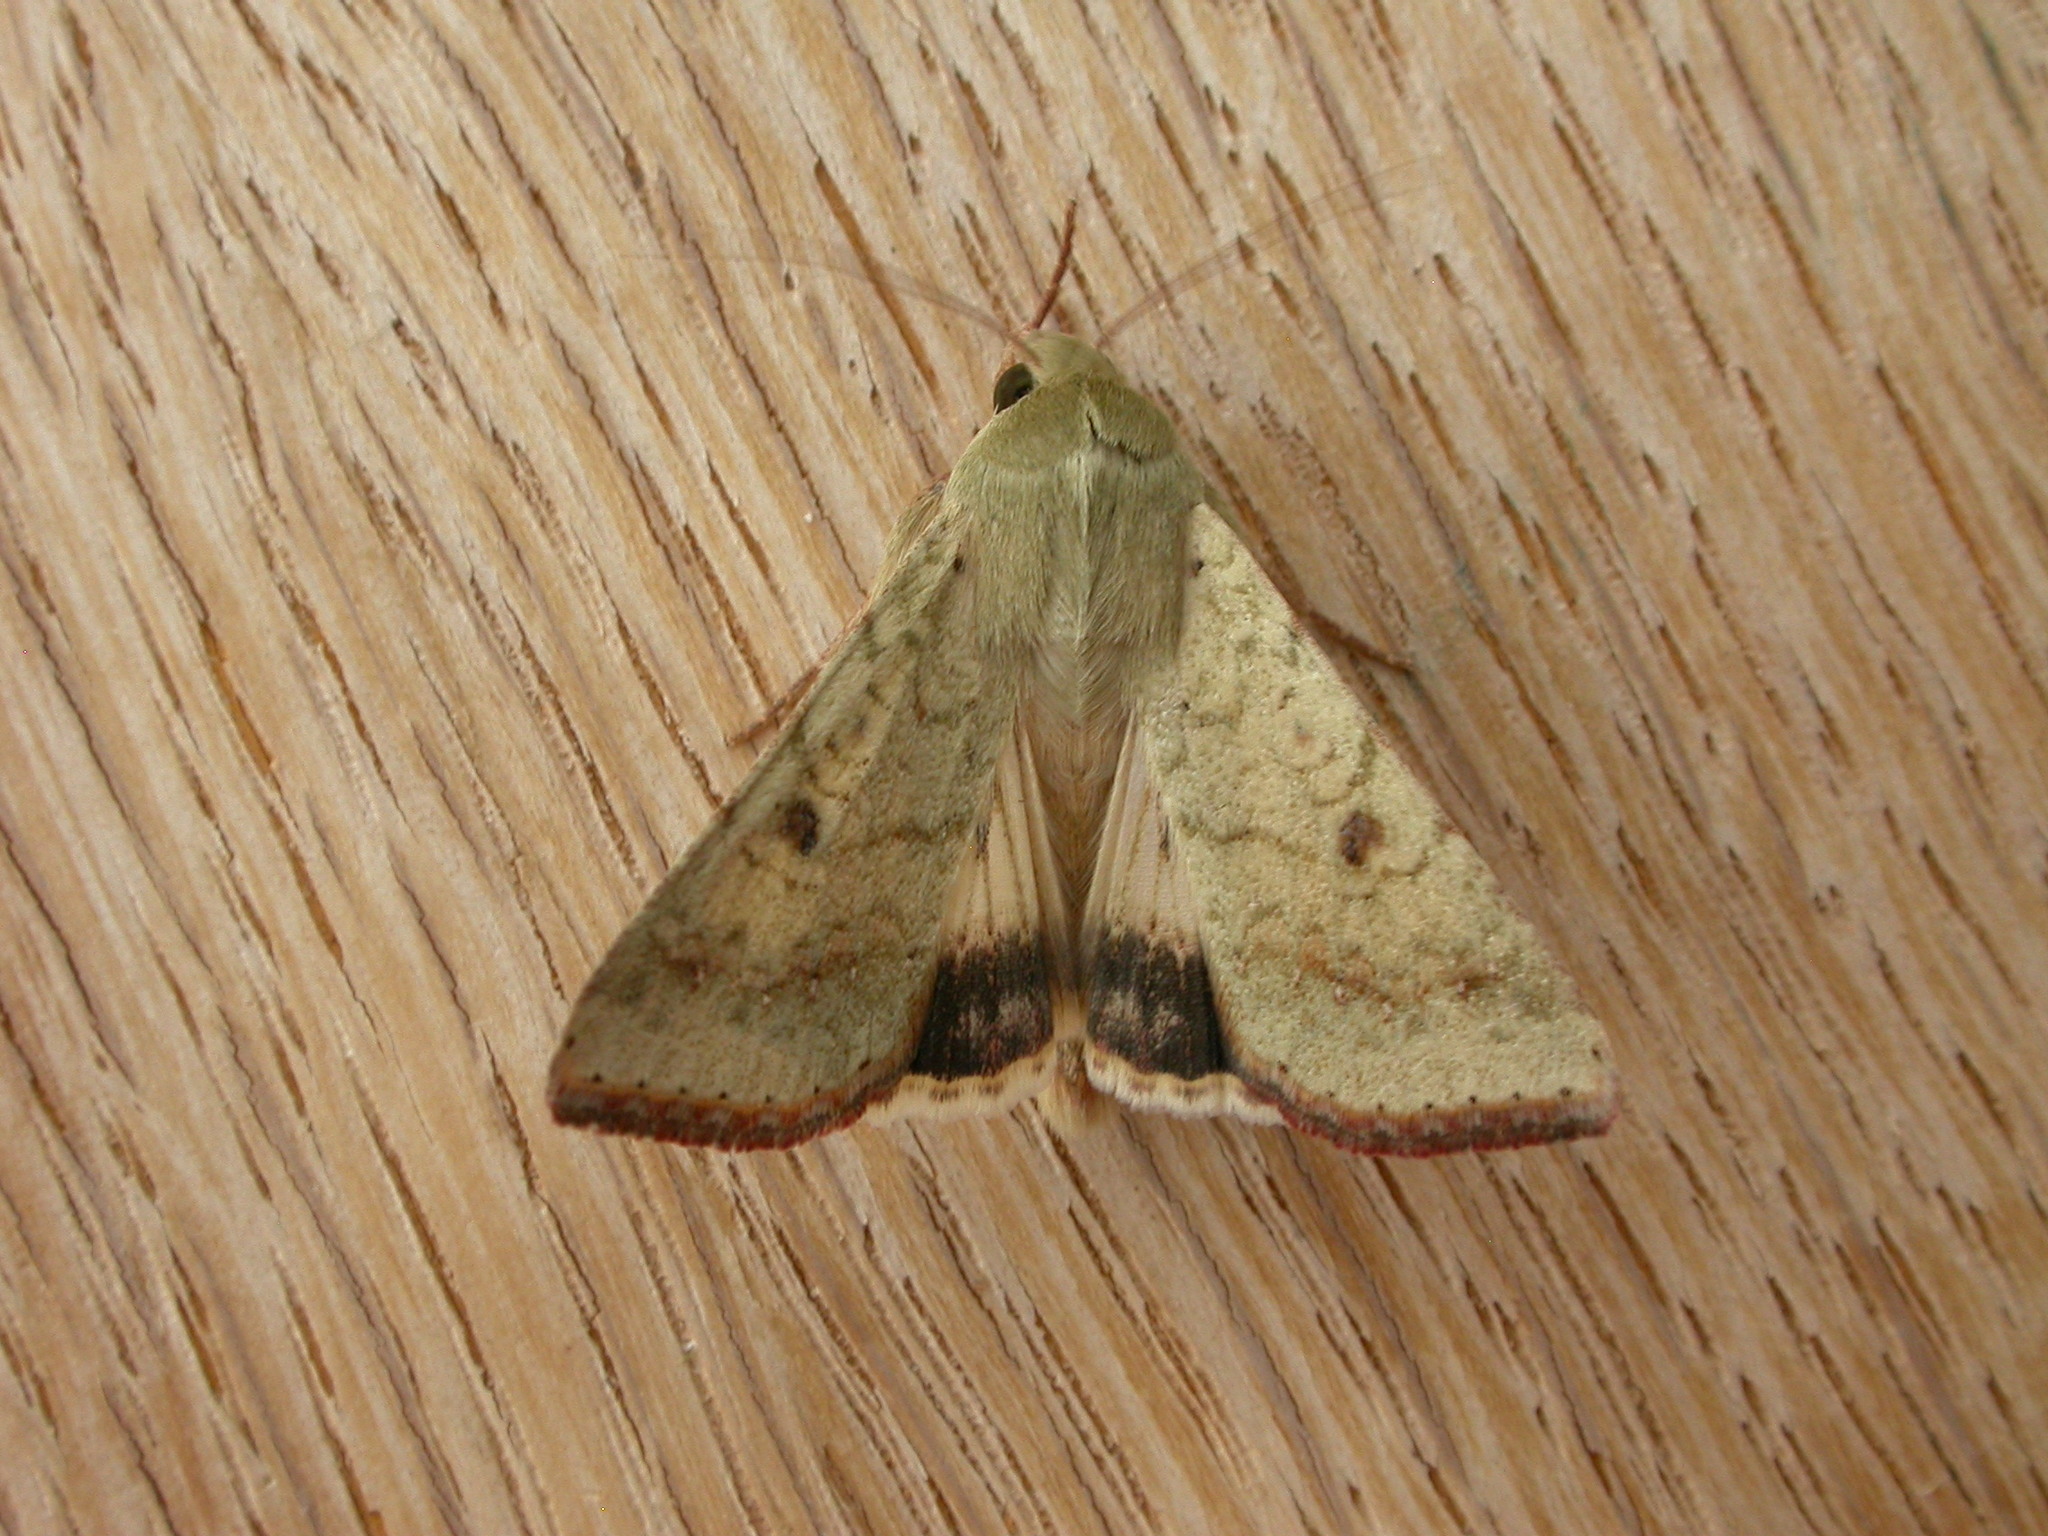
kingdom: Animalia
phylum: Arthropoda
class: Insecta
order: Lepidoptera
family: Noctuidae
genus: Helicoverpa
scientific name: Helicoverpa armigera
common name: Cotton bollworm
